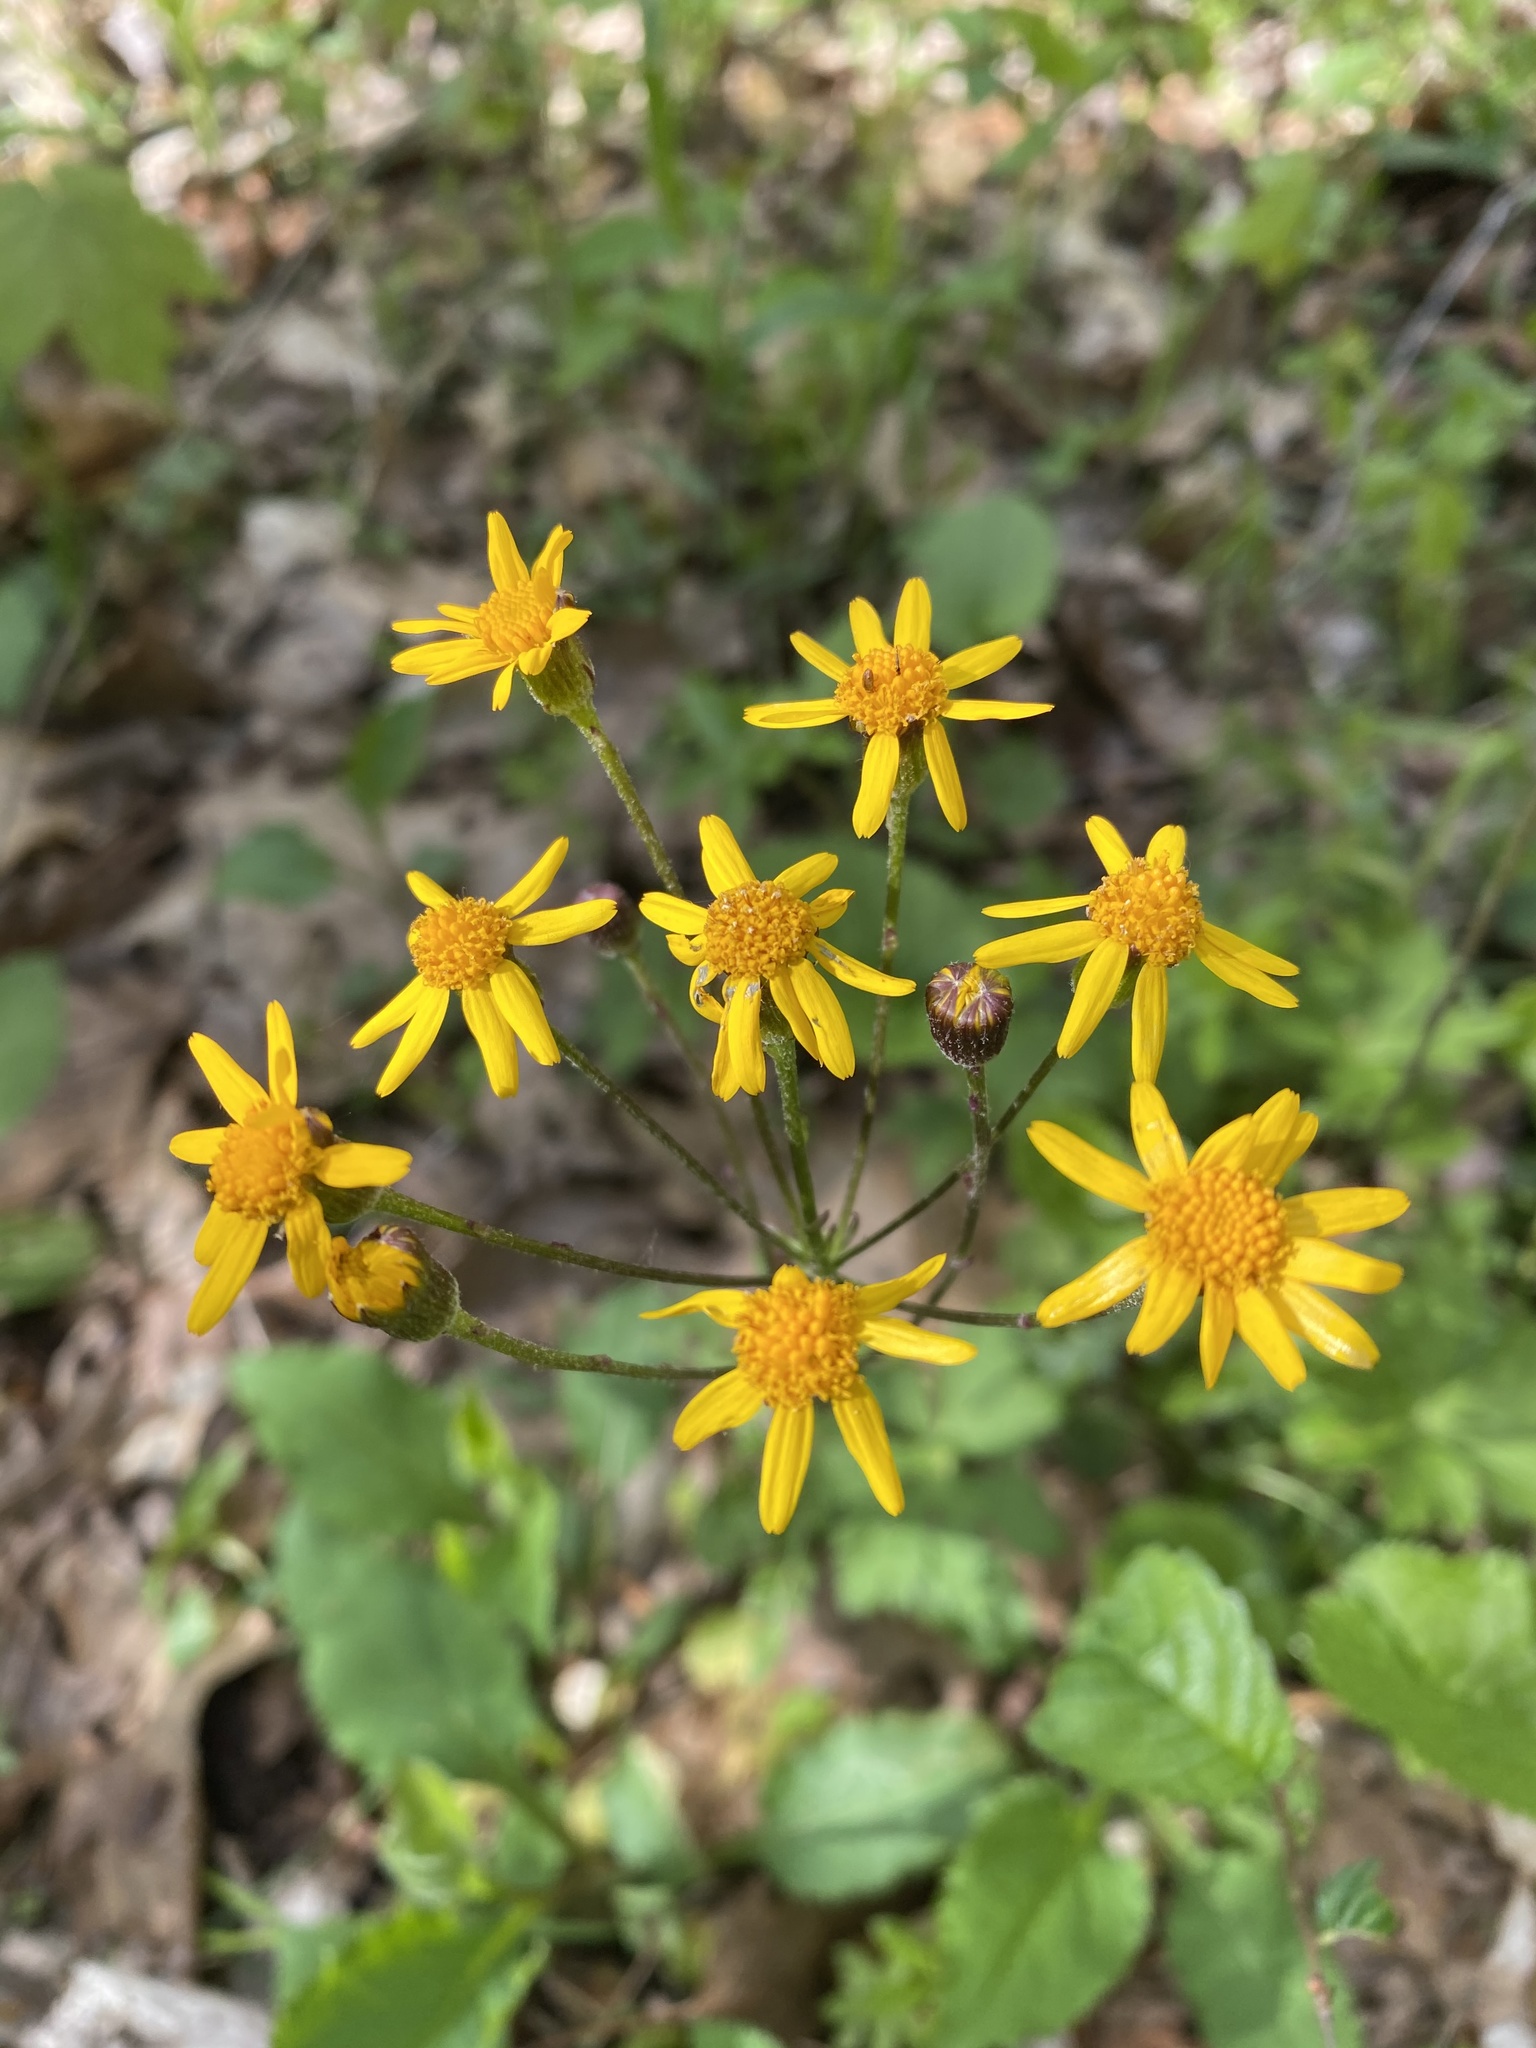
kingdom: Plantae
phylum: Tracheophyta
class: Magnoliopsida
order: Asterales
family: Asteraceae
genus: Packera
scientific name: Packera aurea
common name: Golden groundsel
